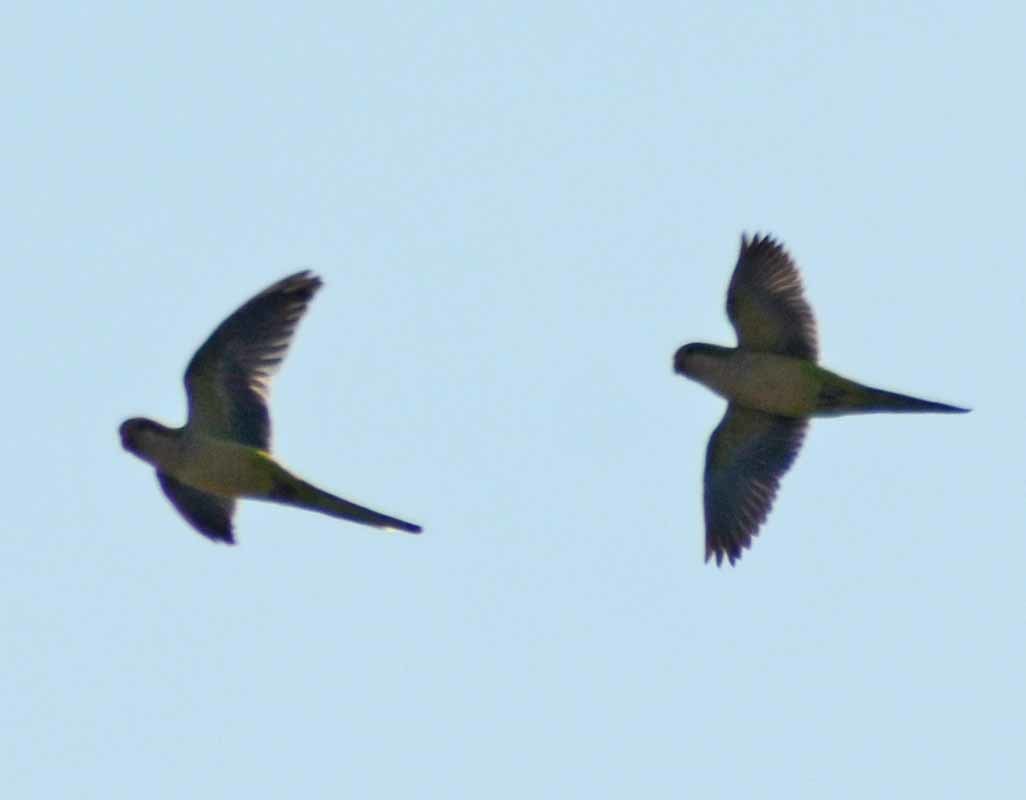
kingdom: Animalia
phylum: Chordata
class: Aves
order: Psittaciformes
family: Psittacidae
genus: Myiopsitta
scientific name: Myiopsitta monachus
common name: Monk parakeet
